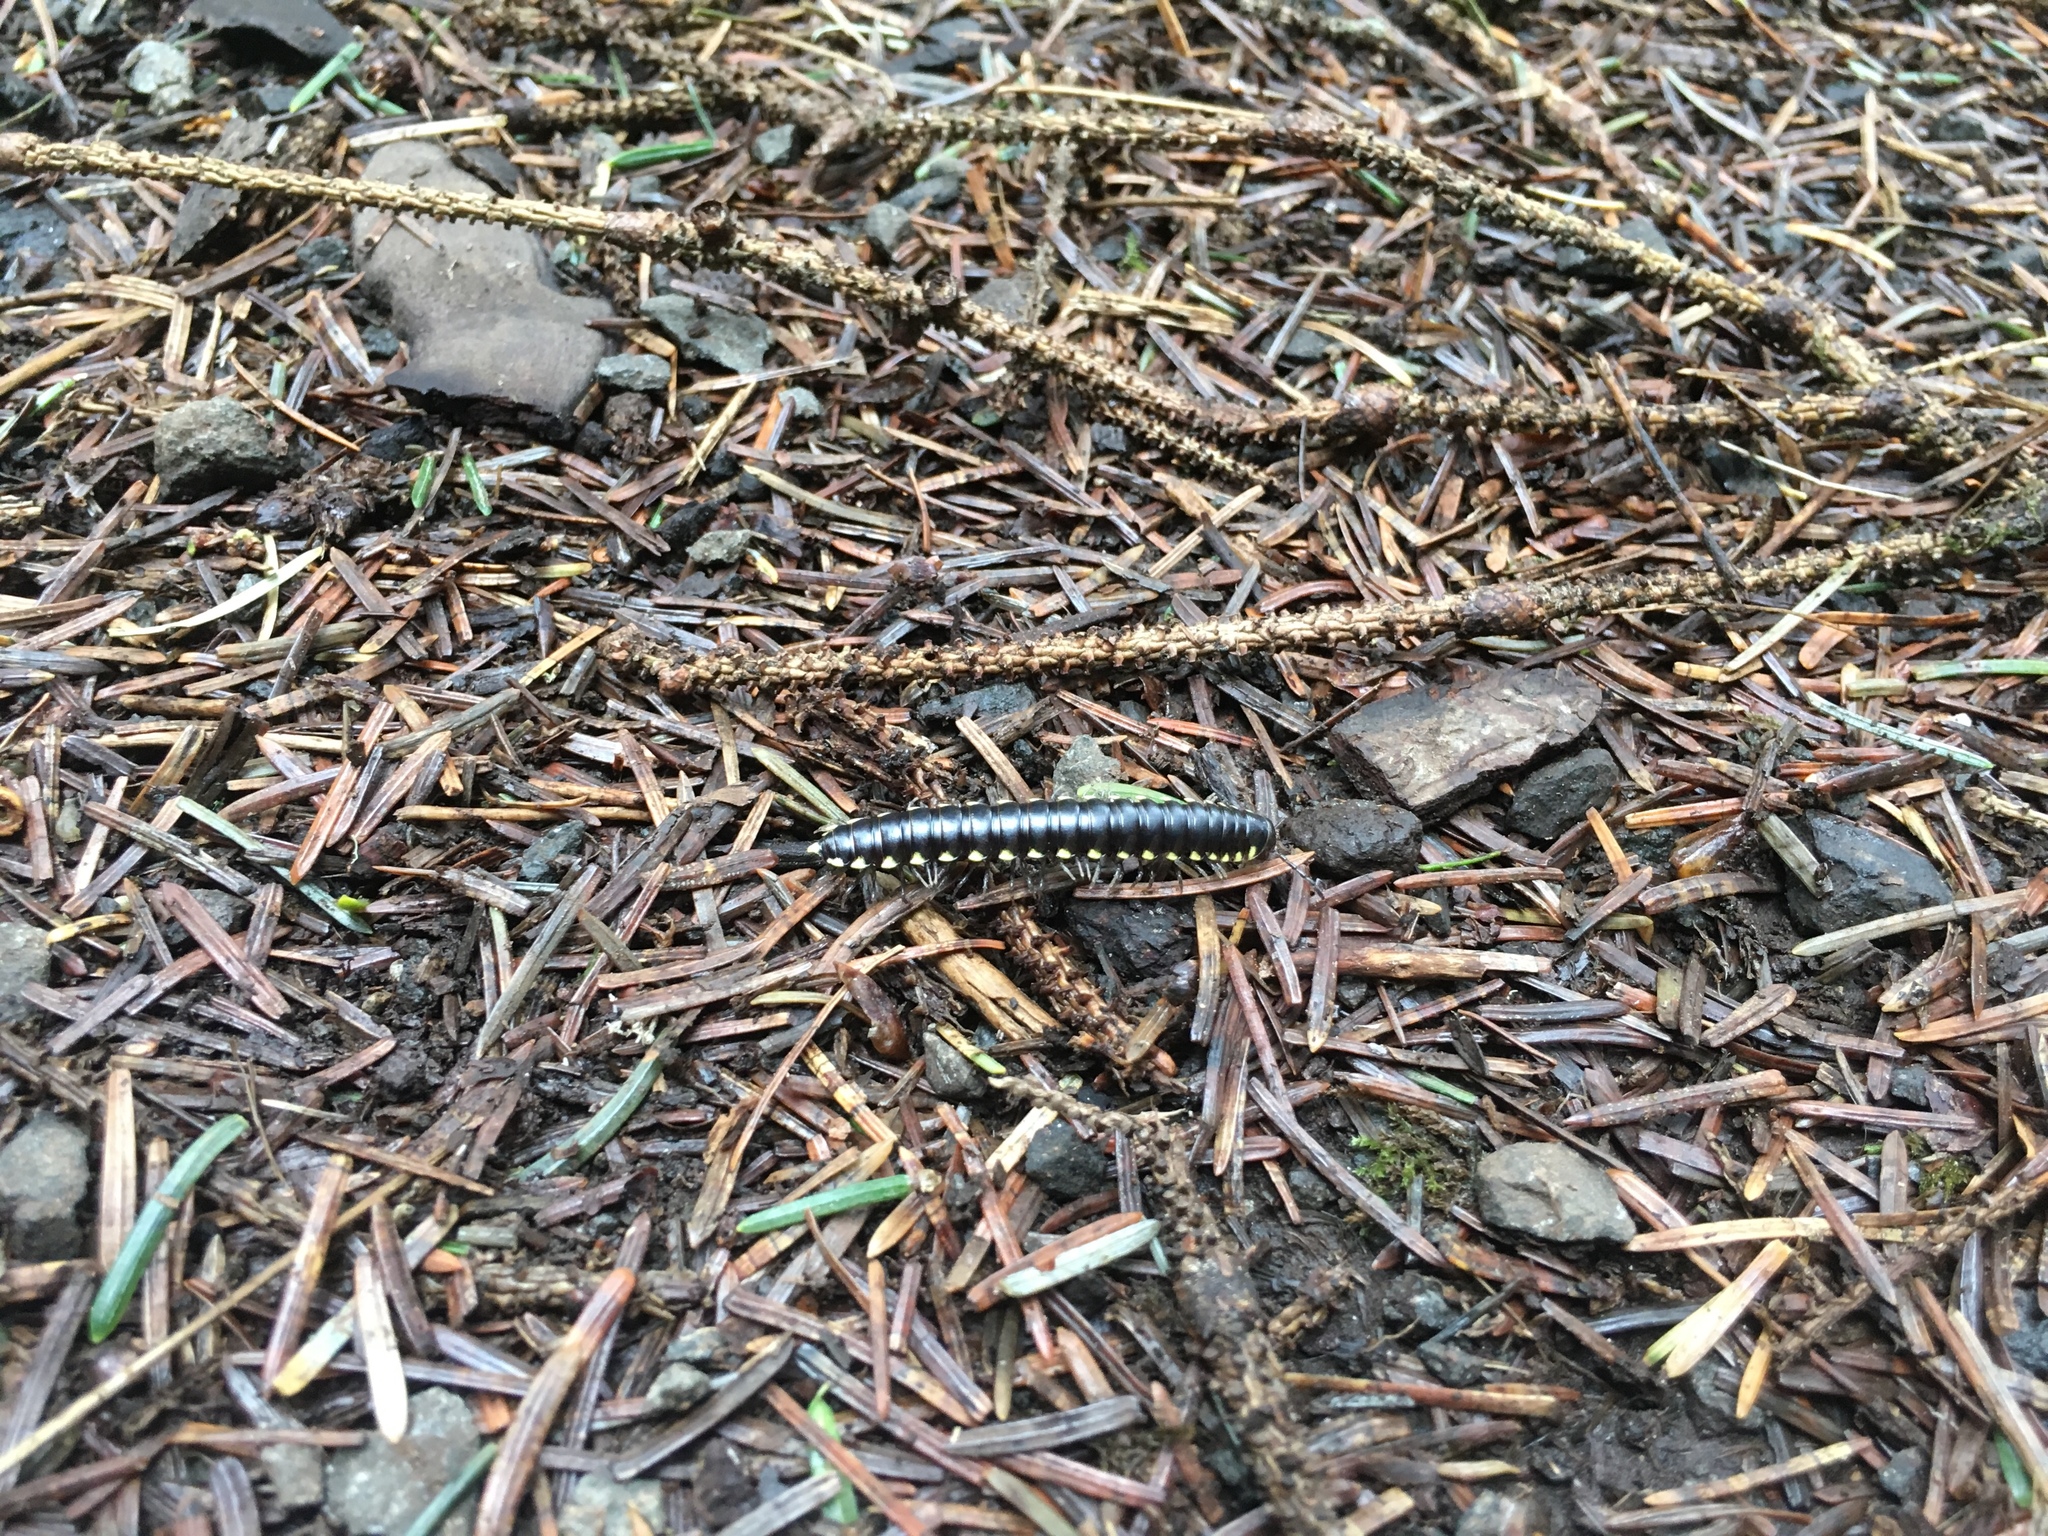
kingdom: Animalia
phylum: Arthropoda
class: Diplopoda
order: Polydesmida
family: Xystodesmidae
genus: Harpaphe
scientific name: Harpaphe haydeniana
